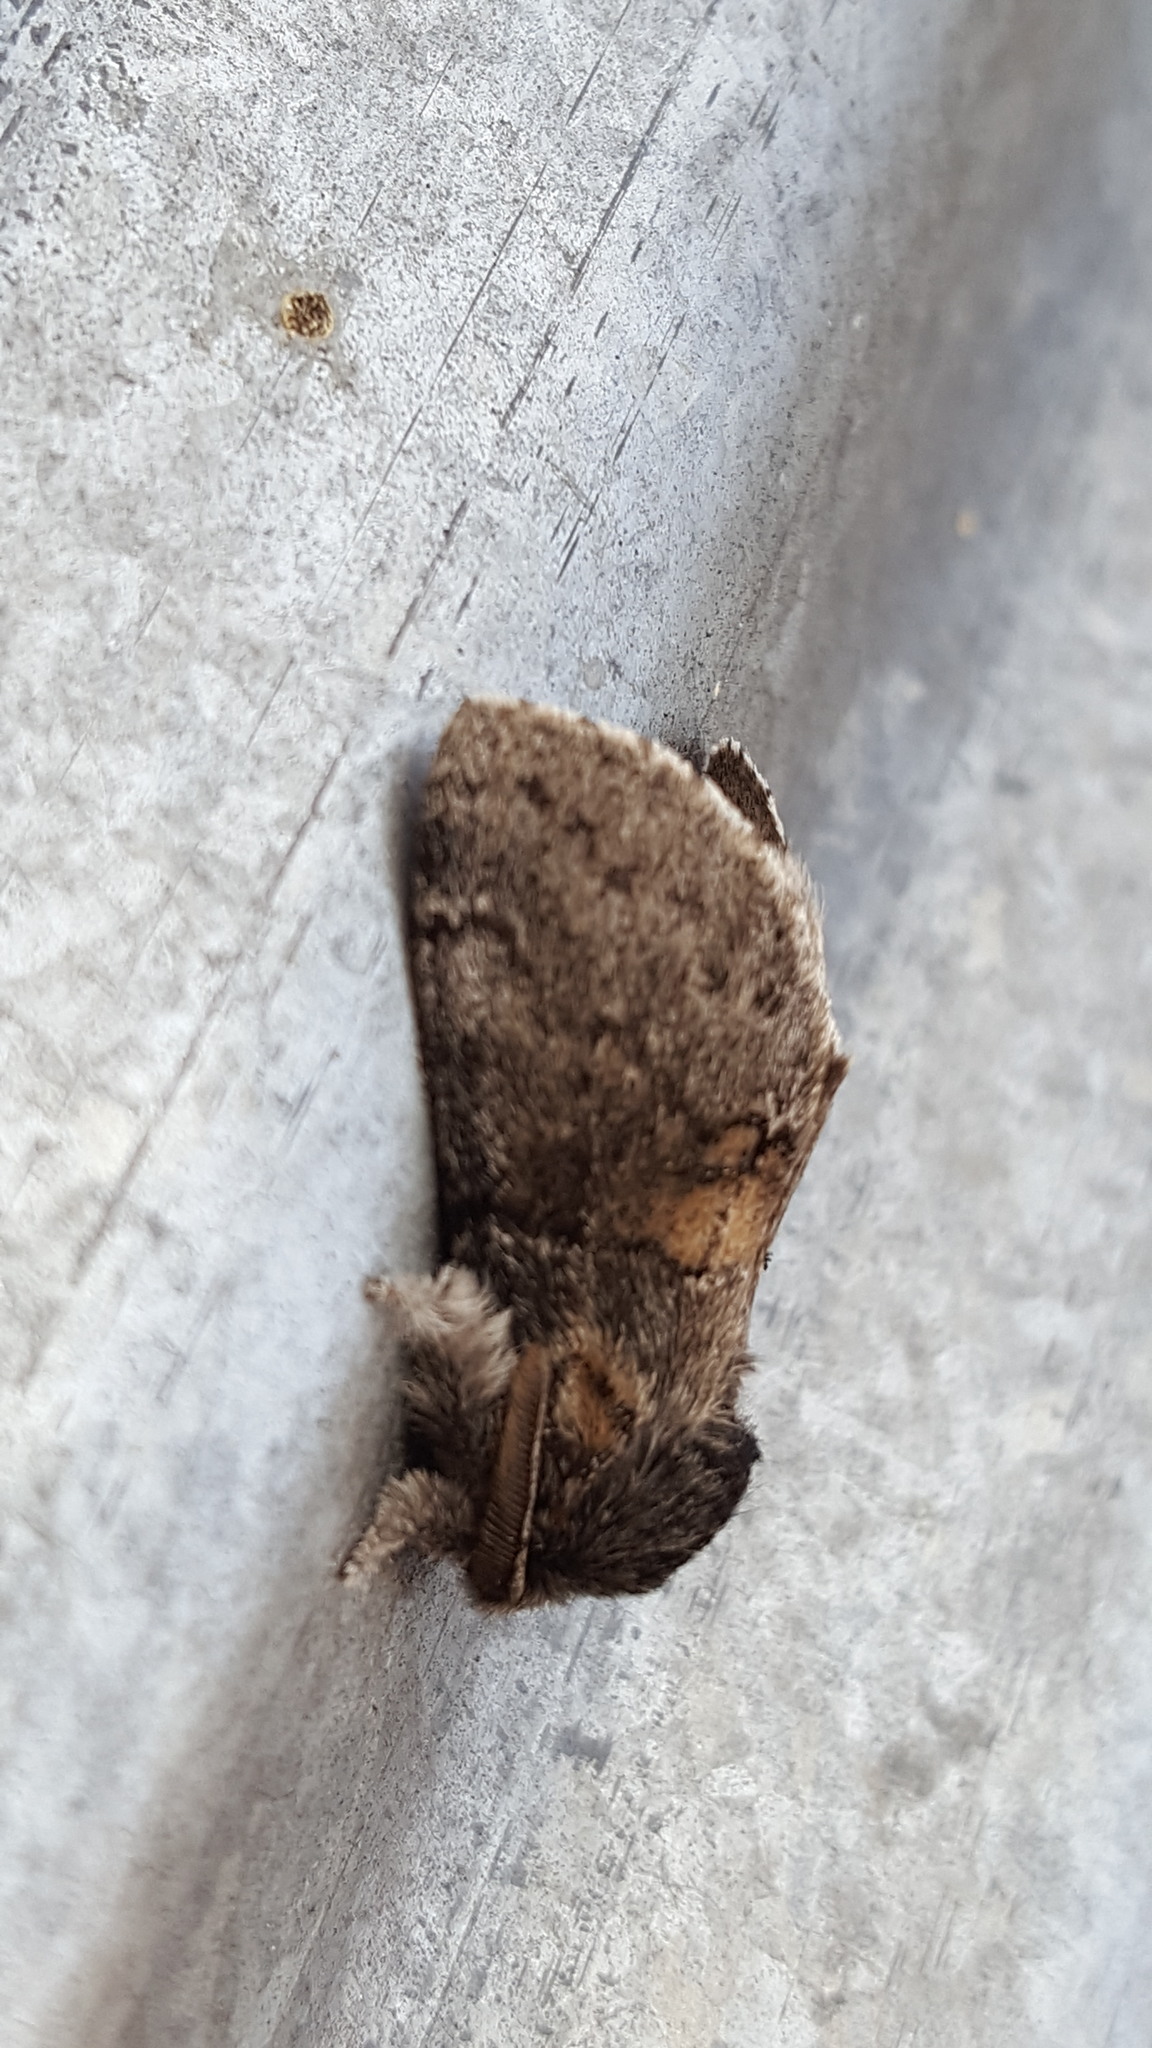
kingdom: Animalia
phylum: Arthropoda
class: Insecta
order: Lepidoptera
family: Notodontidae
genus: Gluphisia
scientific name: Gluphisia septentrionis
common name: Common gluphisia
